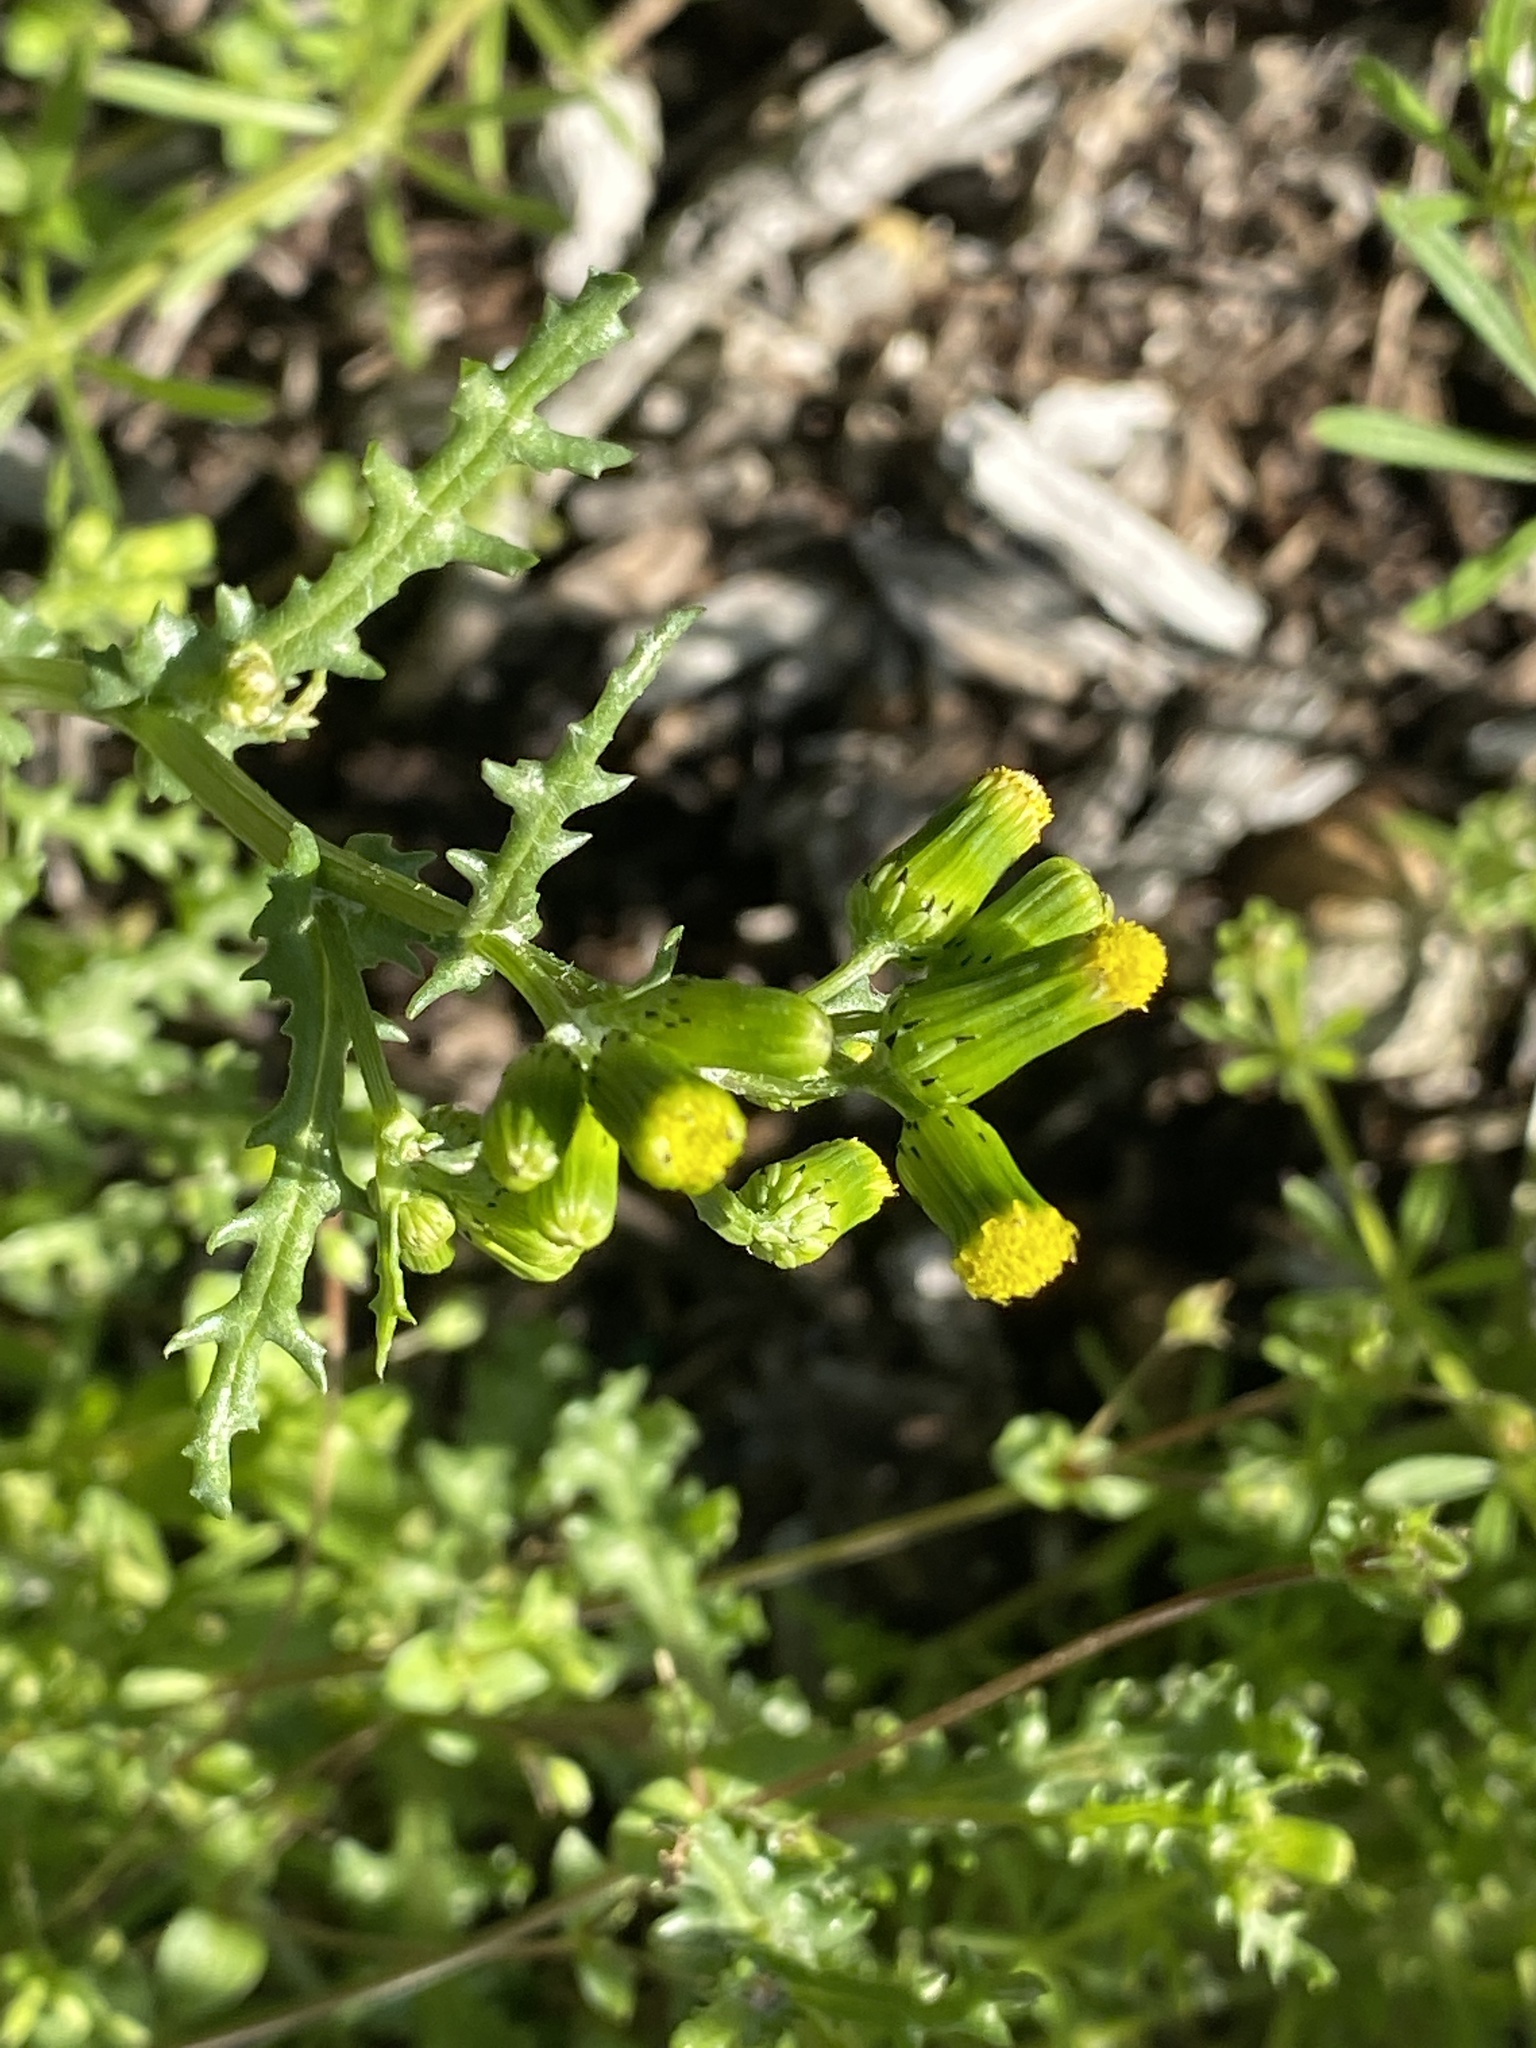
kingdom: Plantae
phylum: Tracheophyta
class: Magnoliopsida
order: Asterales
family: Asteraceae
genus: Senecio
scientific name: Senecio vulgaris
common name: Old-man-in-the-spring
